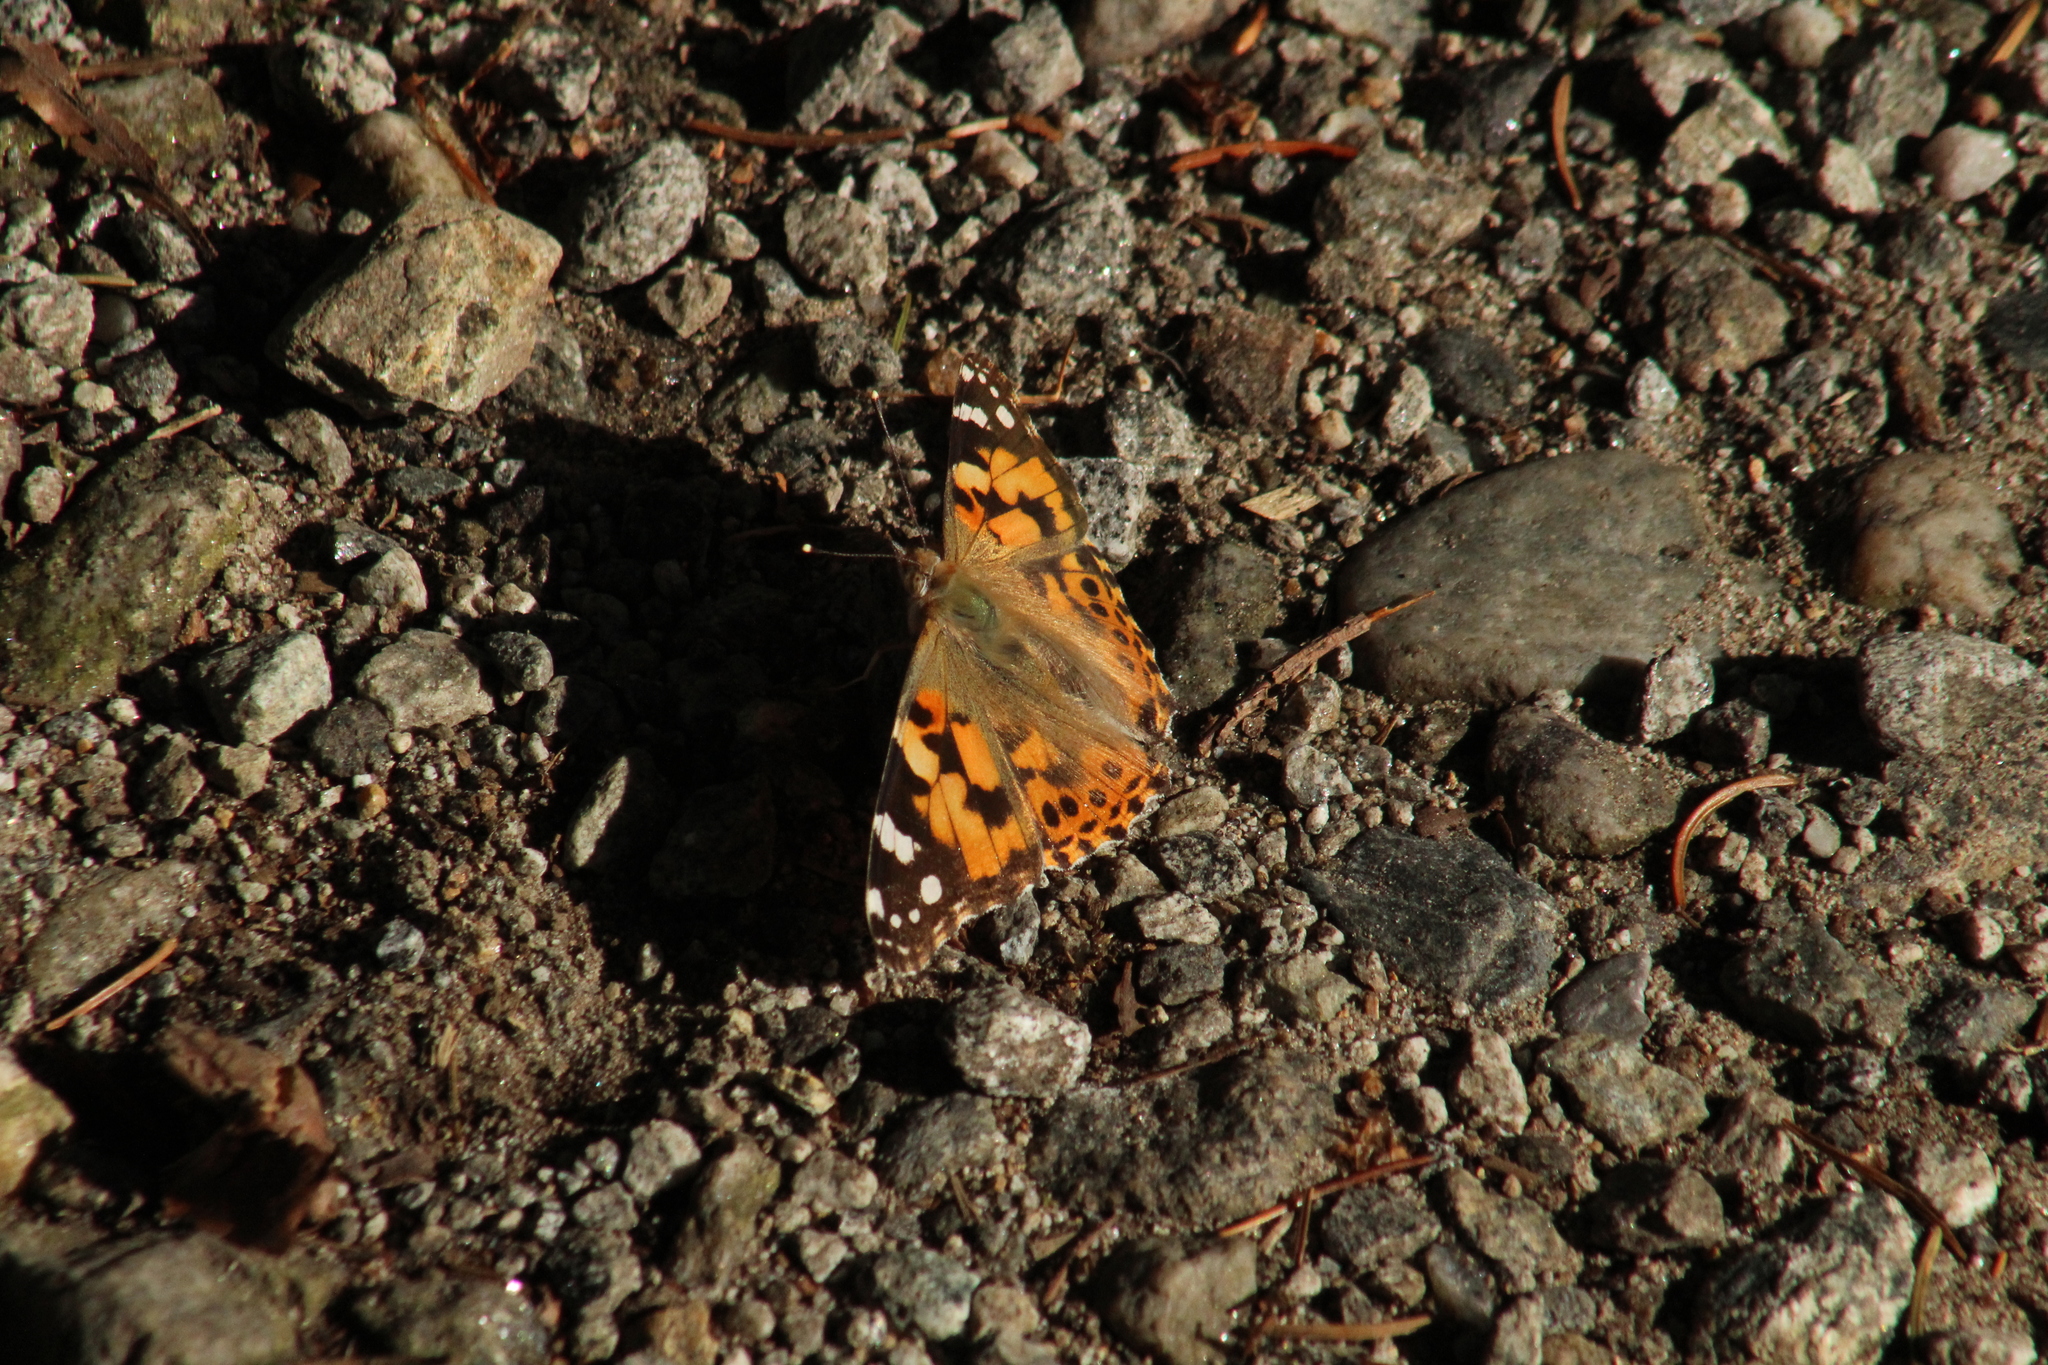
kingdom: Animalia
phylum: Arthropoda
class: Insecta
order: Lepidoptera
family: Nymphalidae
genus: Vanessa
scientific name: Vanessa cardui
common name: Painted lady
